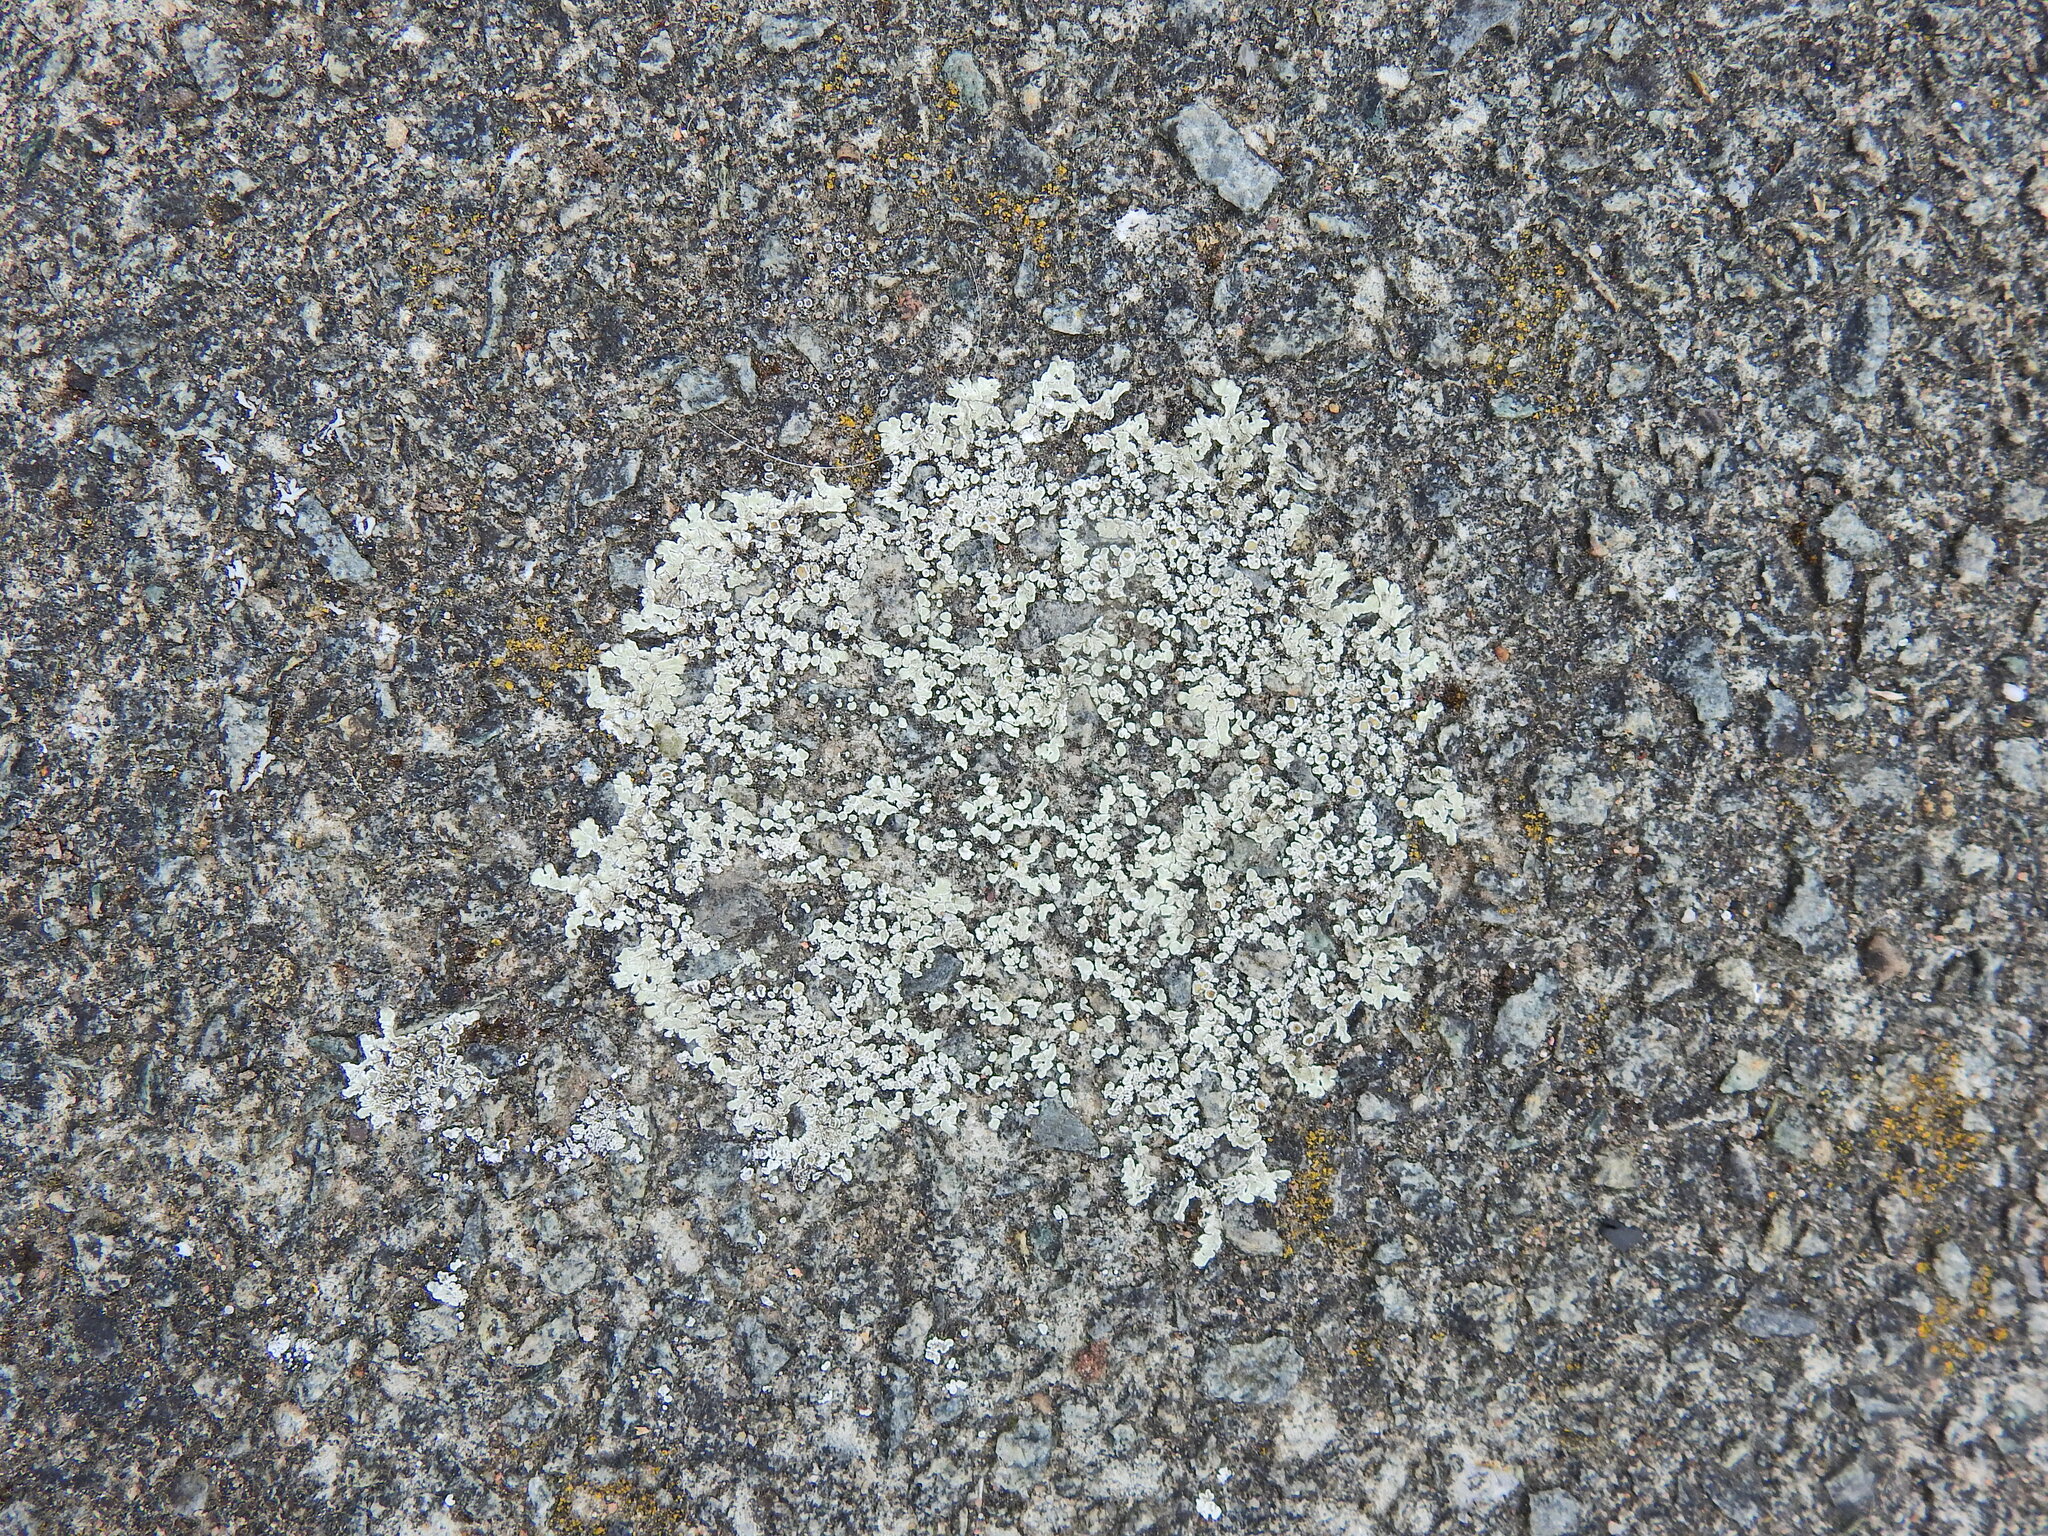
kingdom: Fungi
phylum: Ascomycota
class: Lecanoromycetes
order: Lecanorales
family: Lecanoraceae
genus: Protoparmeliopsis
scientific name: Protoparmeliopsis muralis
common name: Stonewall rim lichen
